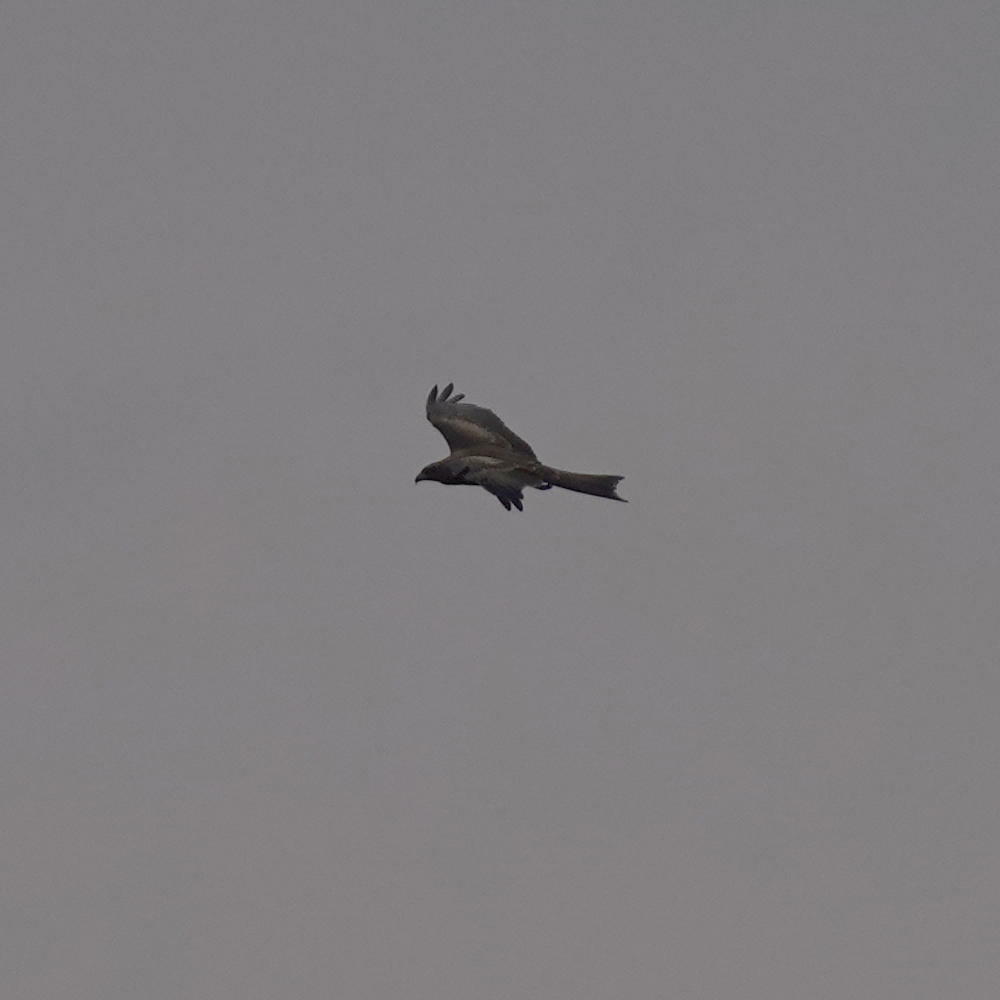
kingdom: Animalia
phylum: Chordata
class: Aves
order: Accipitriformes
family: Accipitridae
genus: Milvus
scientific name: Milvus migrans
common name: Black kite
